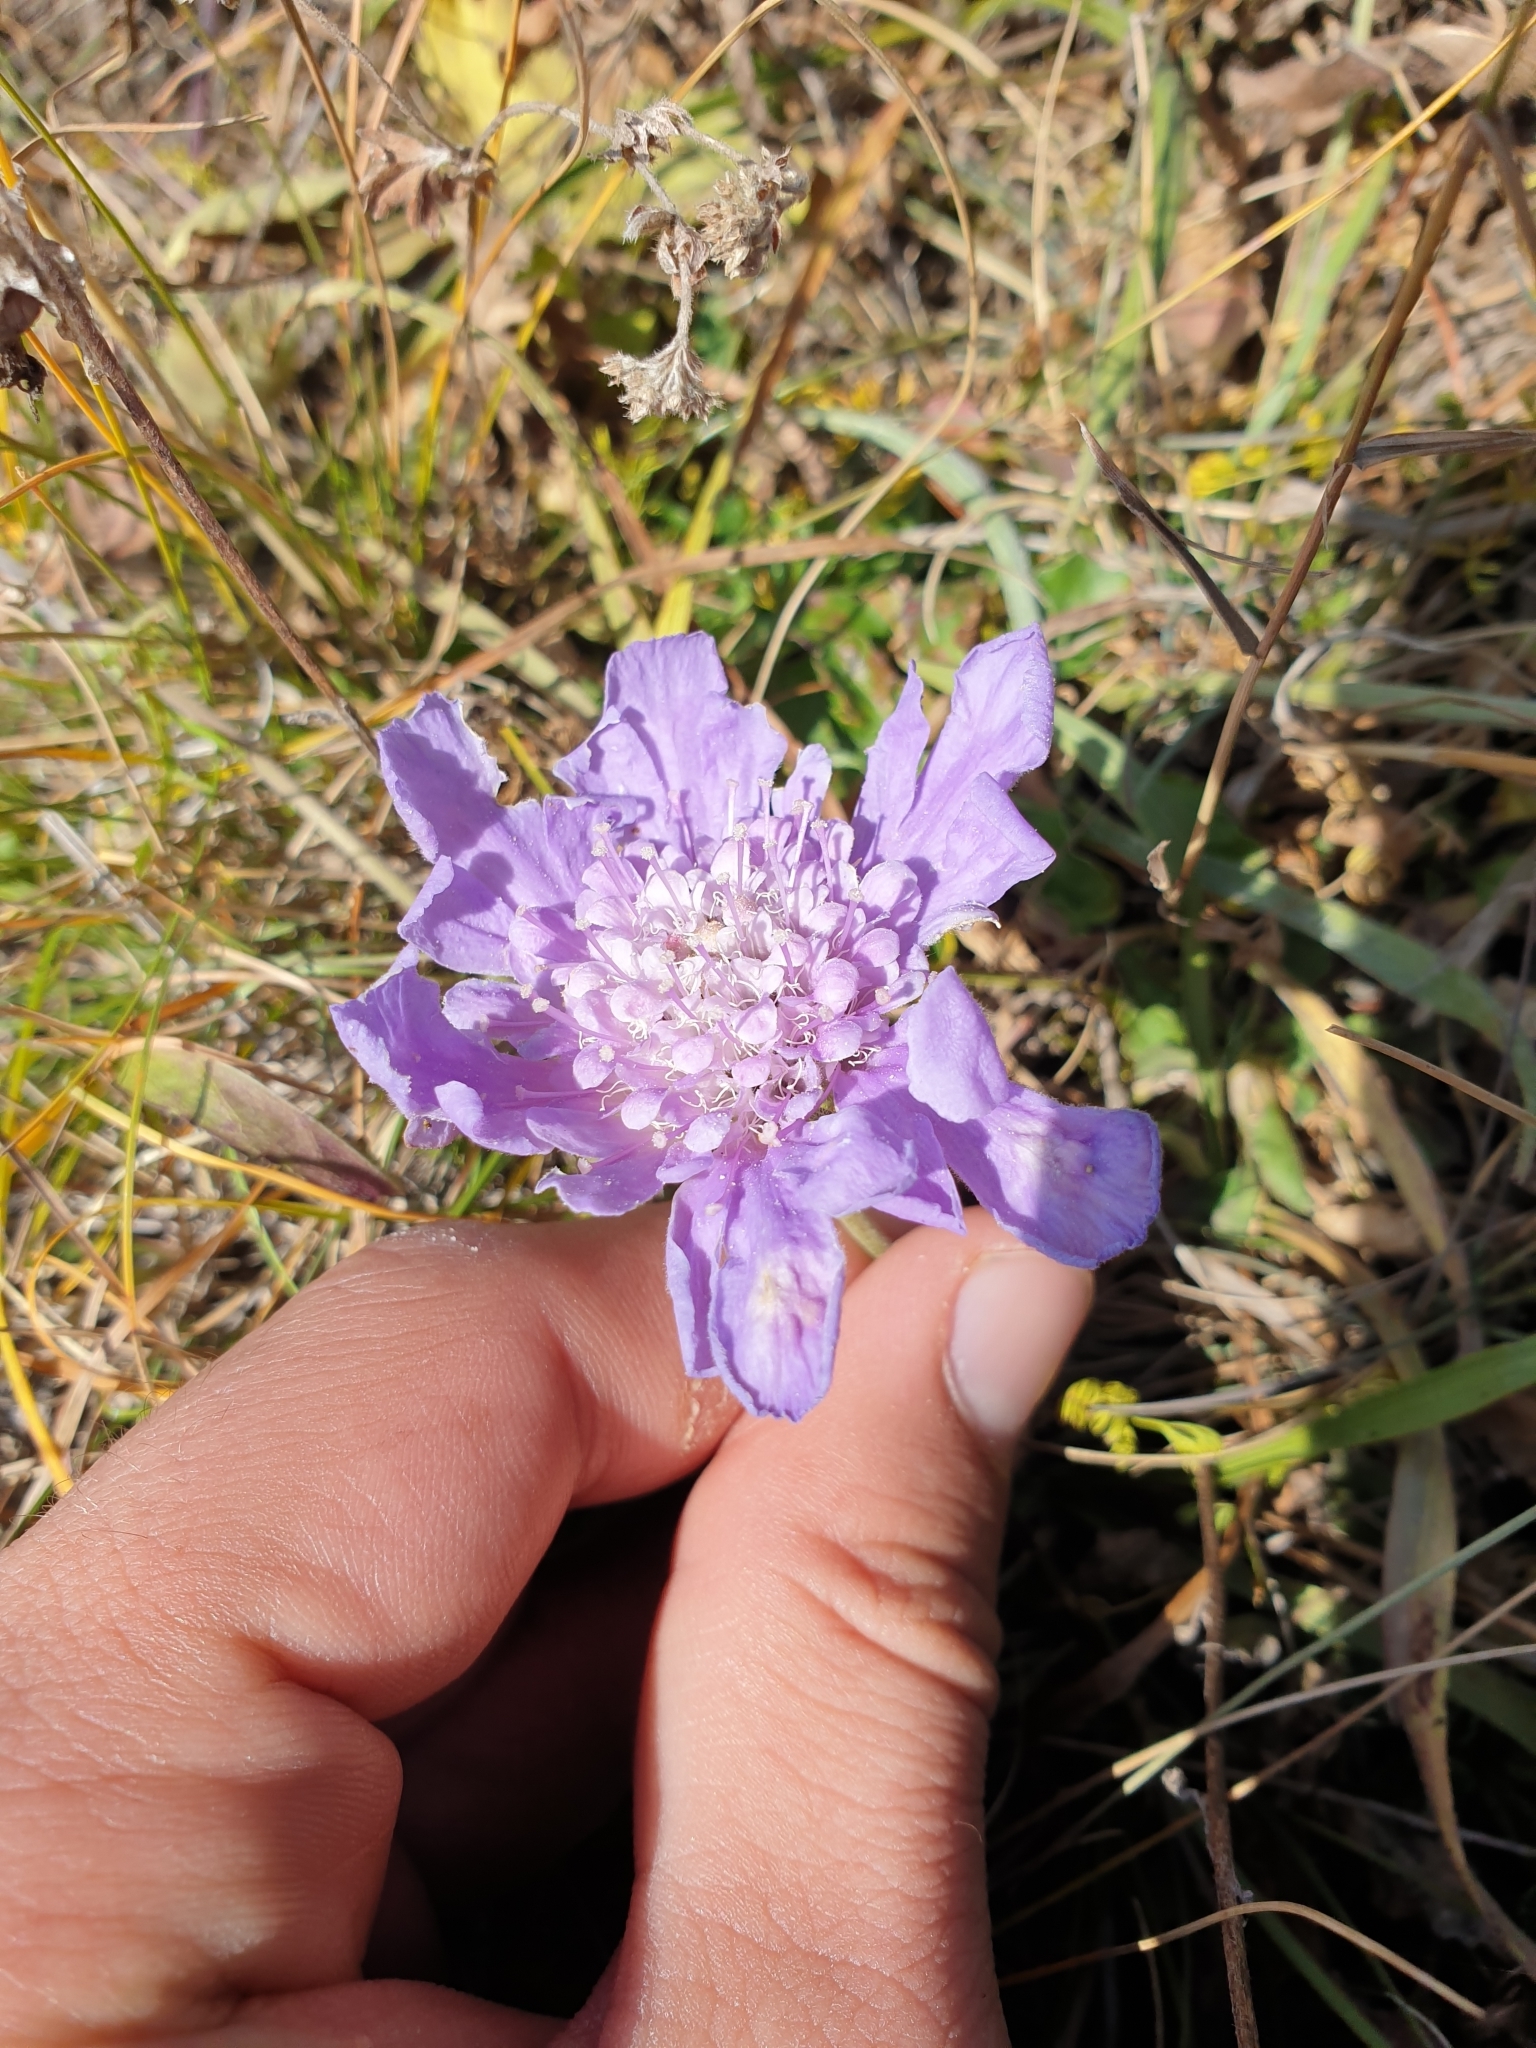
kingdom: Plantae
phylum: Tracheophyta
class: Magnoliopsida
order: Dipsacales
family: Caprifoliaceae
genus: Lomelosia
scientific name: Lomelosia caucasica
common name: Pincushion-flower
